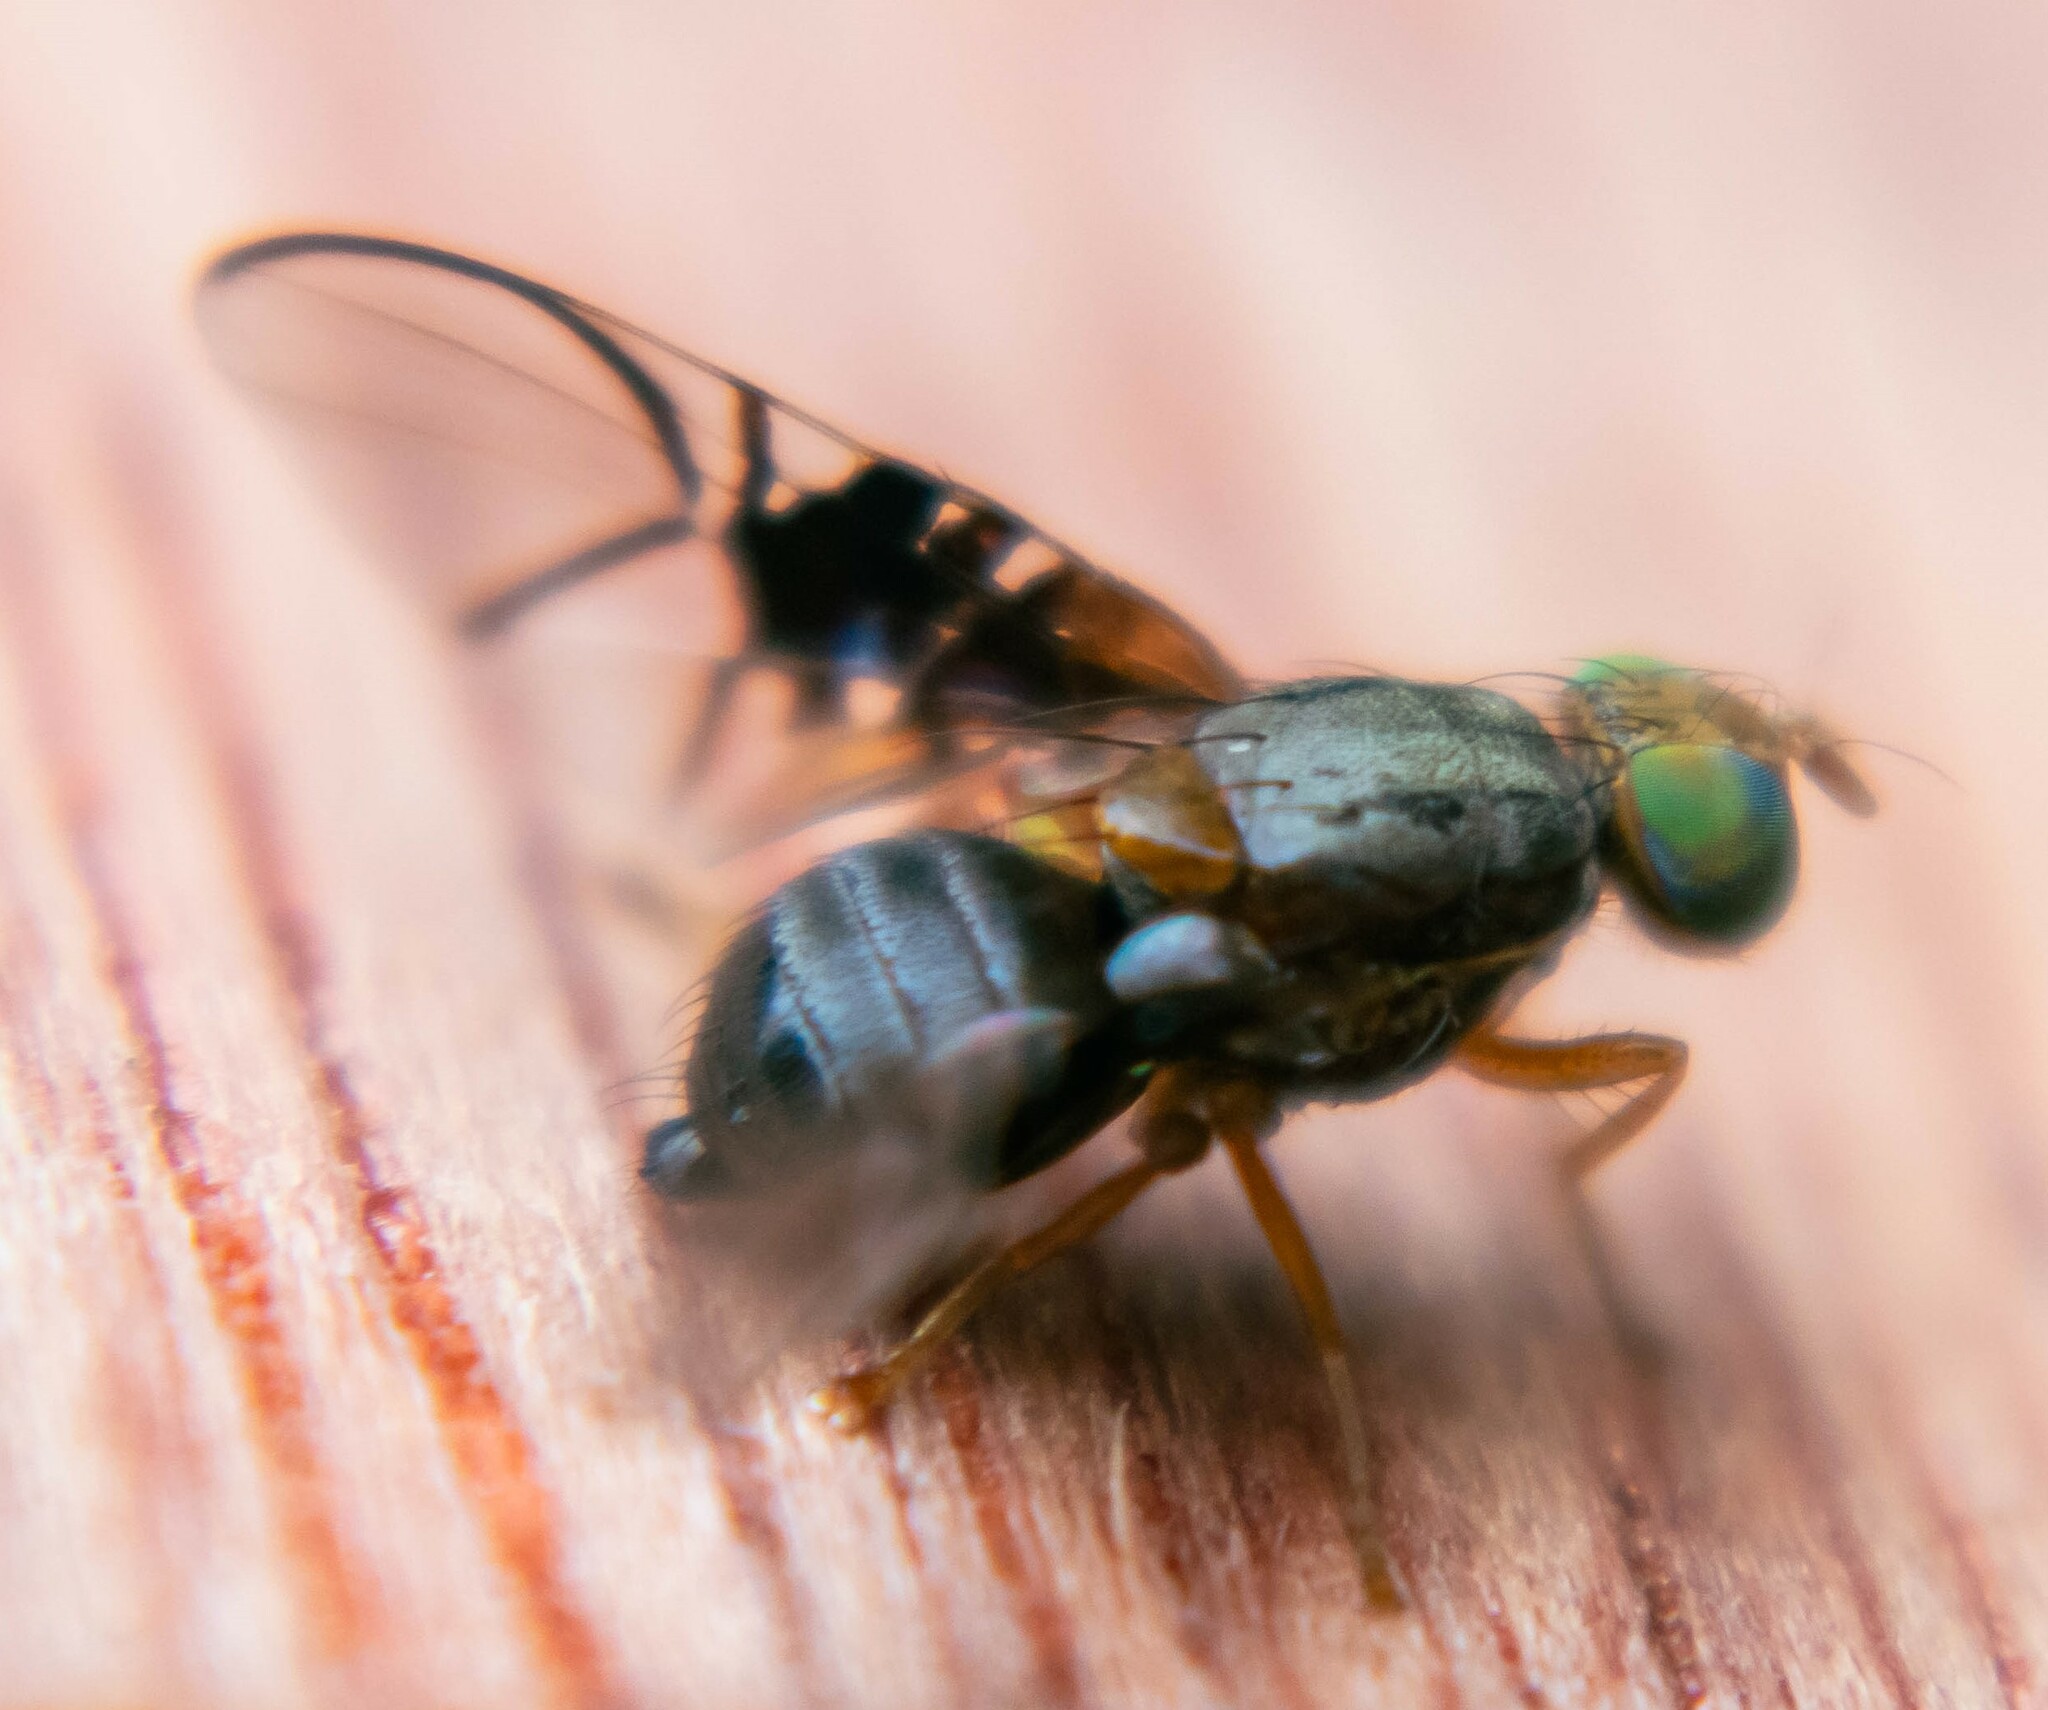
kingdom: Animalia
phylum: Arthropoda
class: Insecta
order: Diptera
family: Tephritidae
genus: Anomoia
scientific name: Anomoia purmunda
